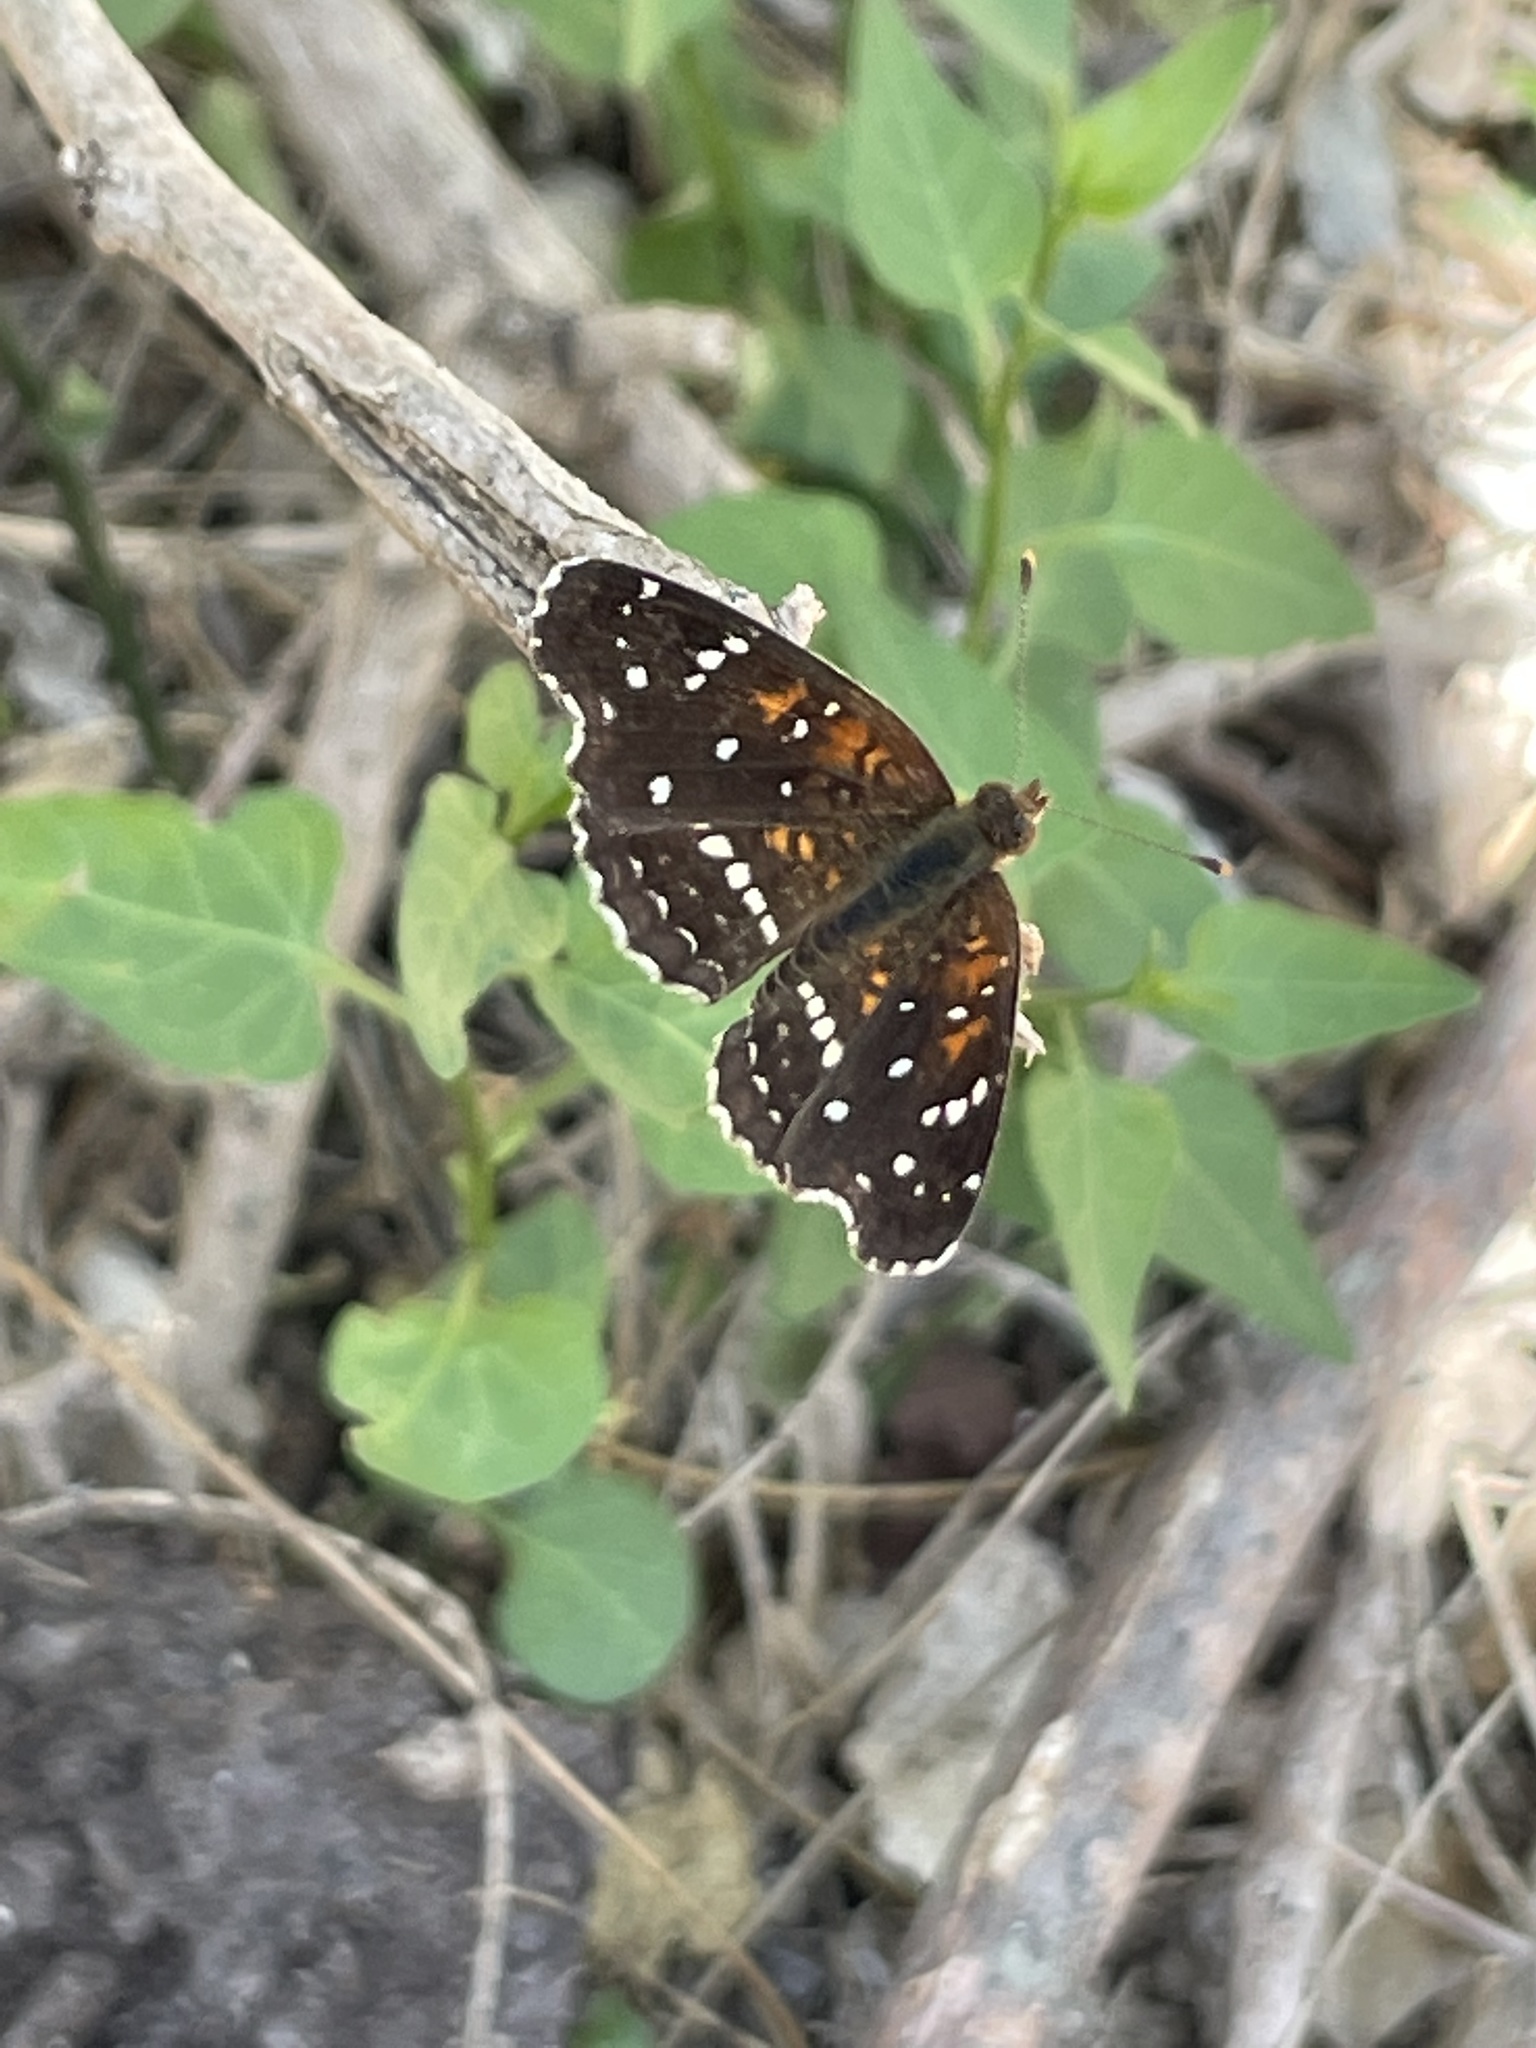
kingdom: Animalia
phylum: Arthropoda
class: Insecta
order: Lepidoptera
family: Nymphalidae
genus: Anthanassa
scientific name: Anthanassa texana
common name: Texan crescent
